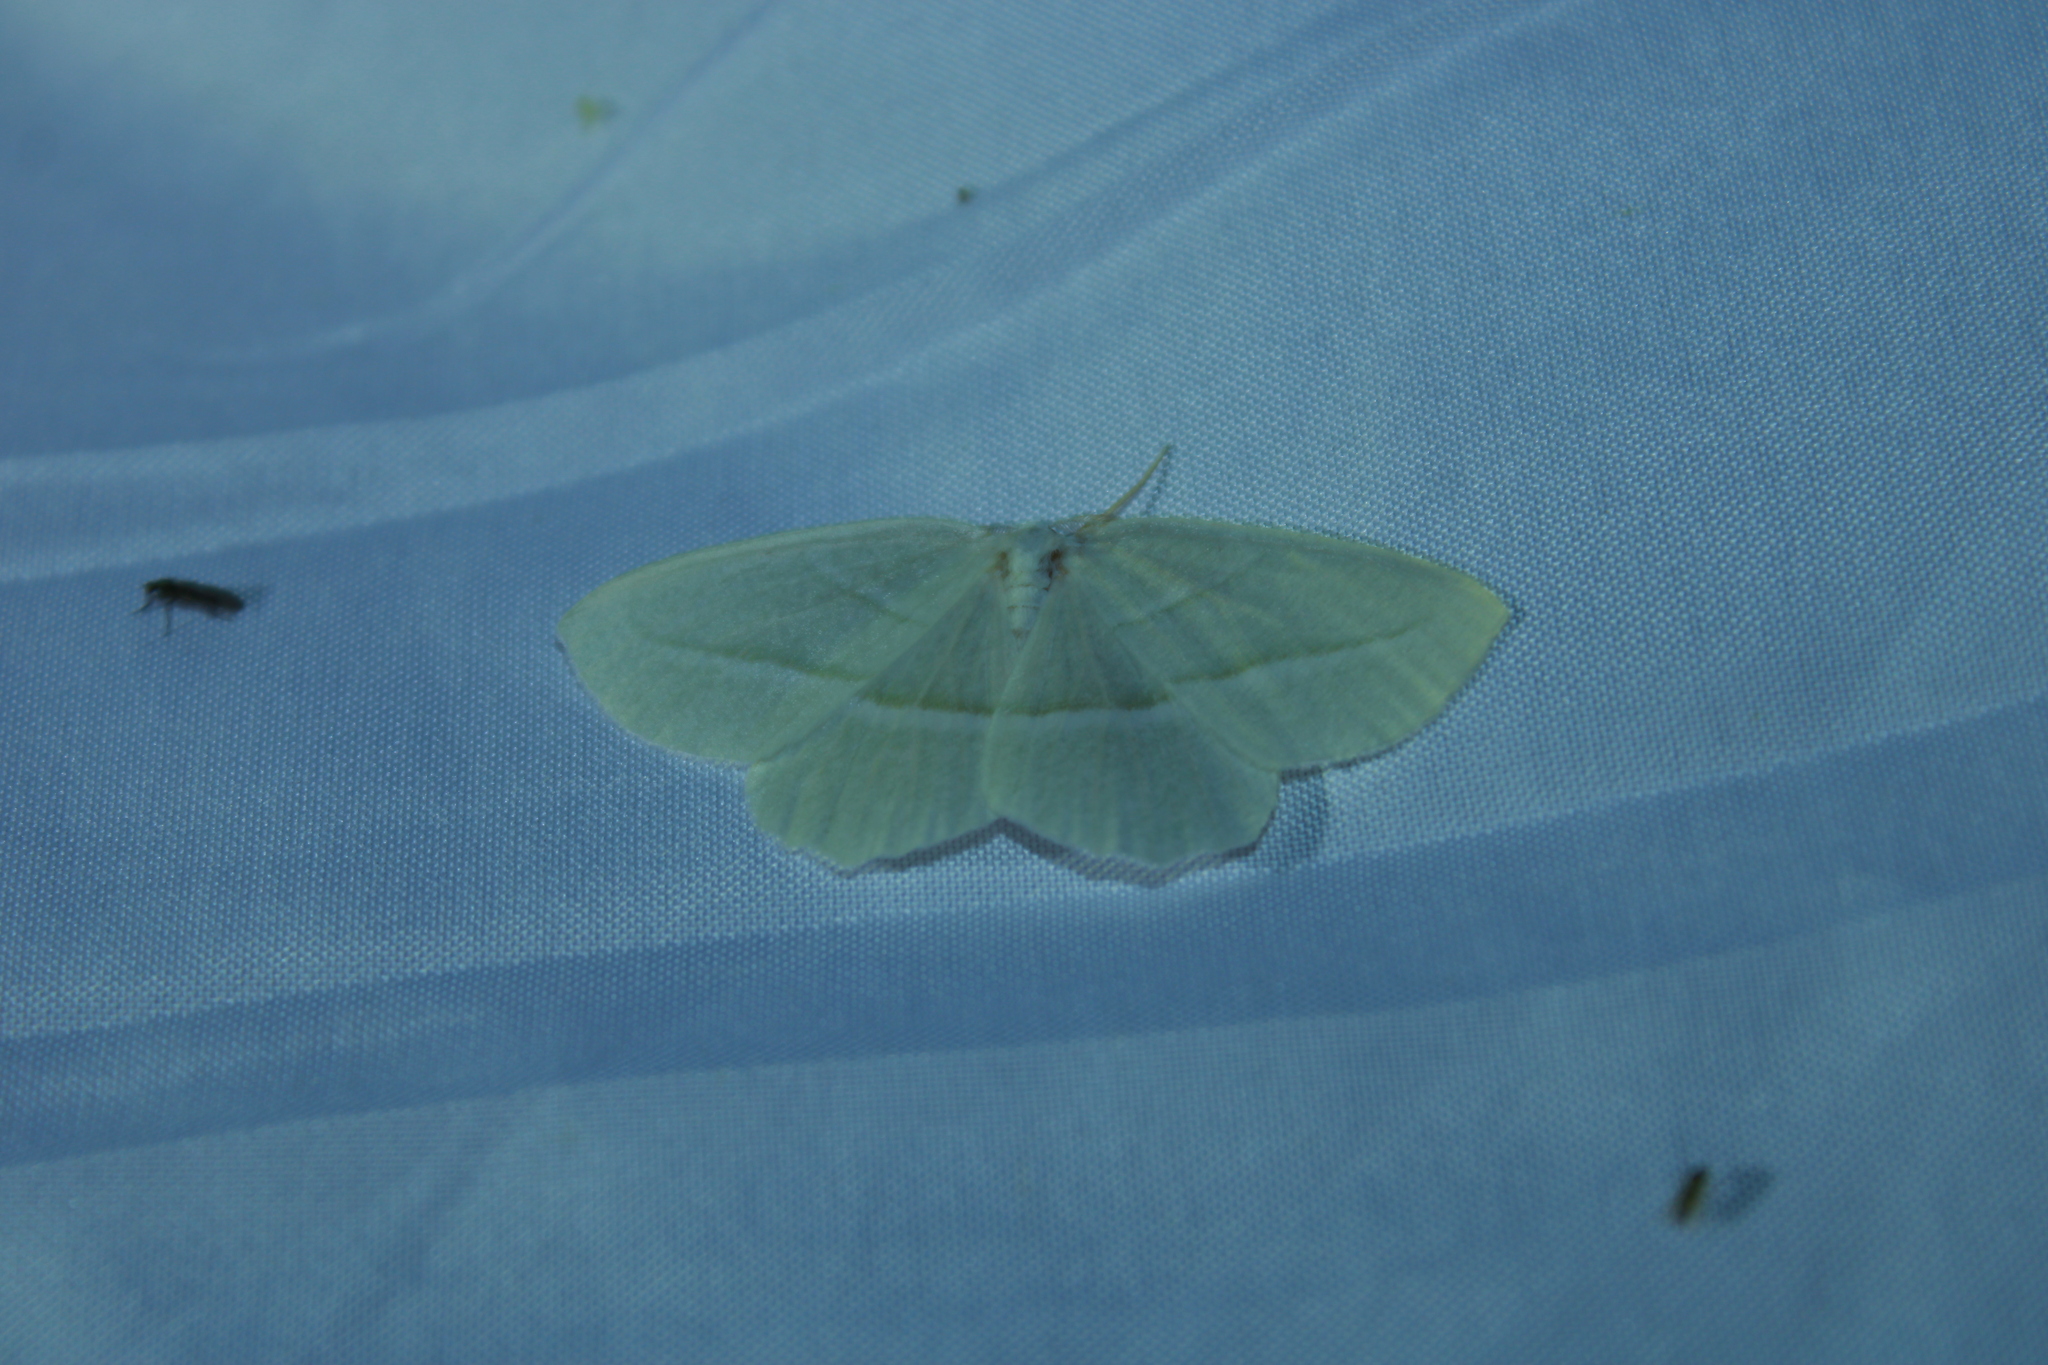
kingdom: Animalia
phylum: Arthropoda
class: Insecta
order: Lepidoptera
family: Geometridae
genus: Campaea
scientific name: Campaea perlata
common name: Fringed looper
